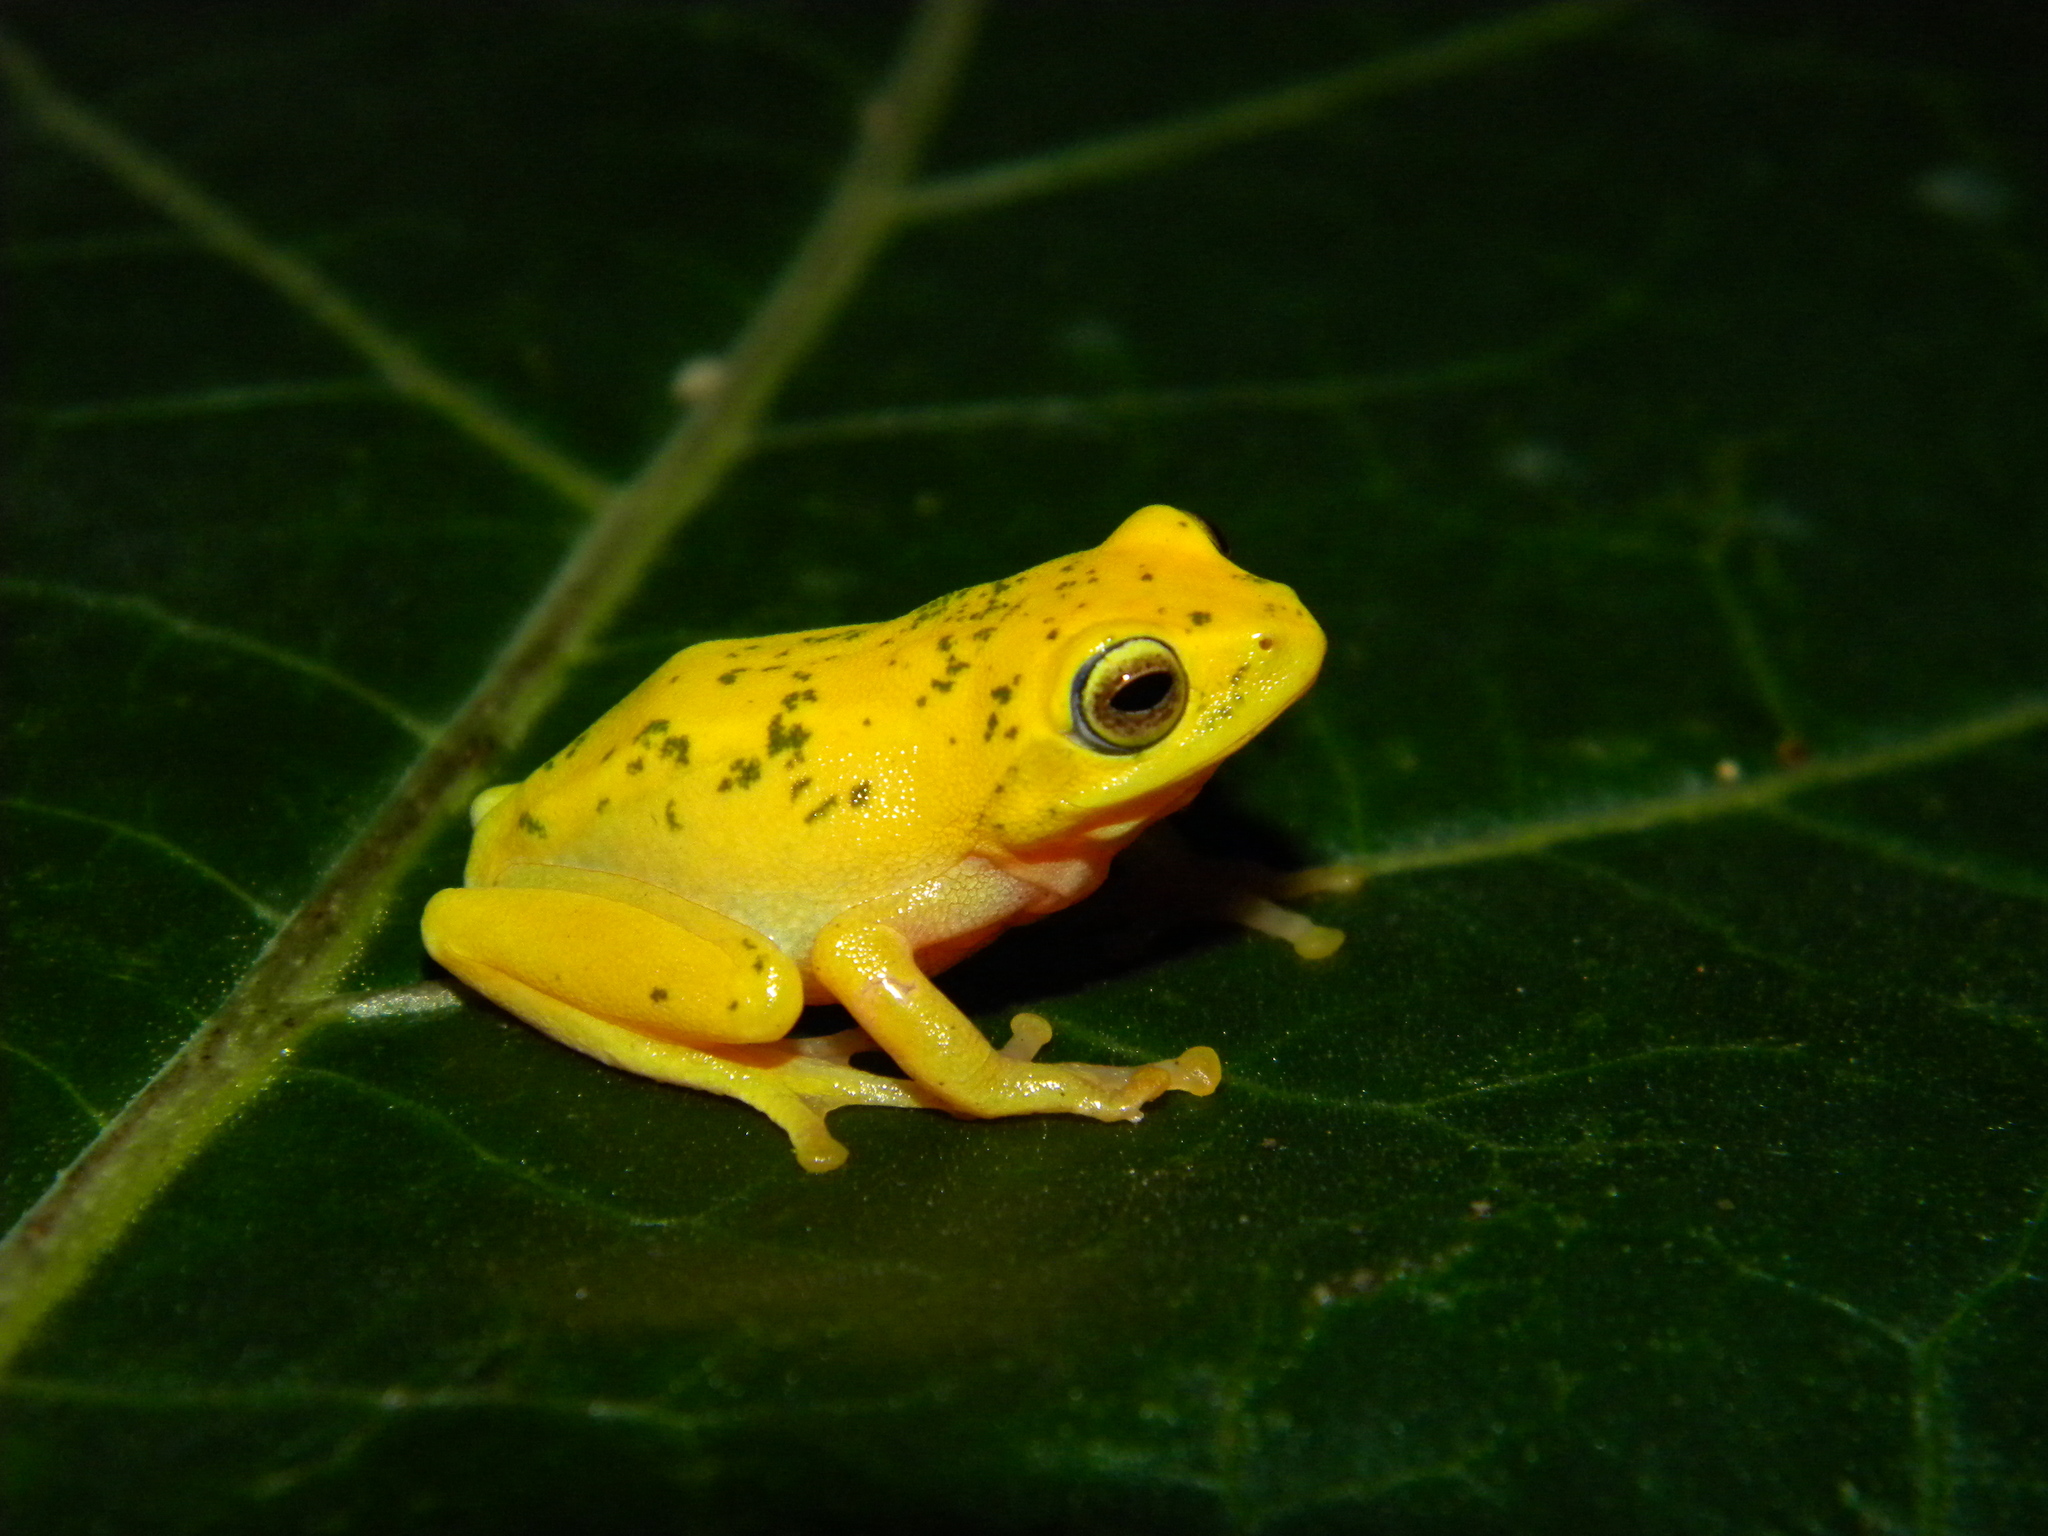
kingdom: Animalia
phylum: Chordata
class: Amphibia
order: Anura
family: Rhacophoridae
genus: Raorchestes
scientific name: Raorchestes jayarami
